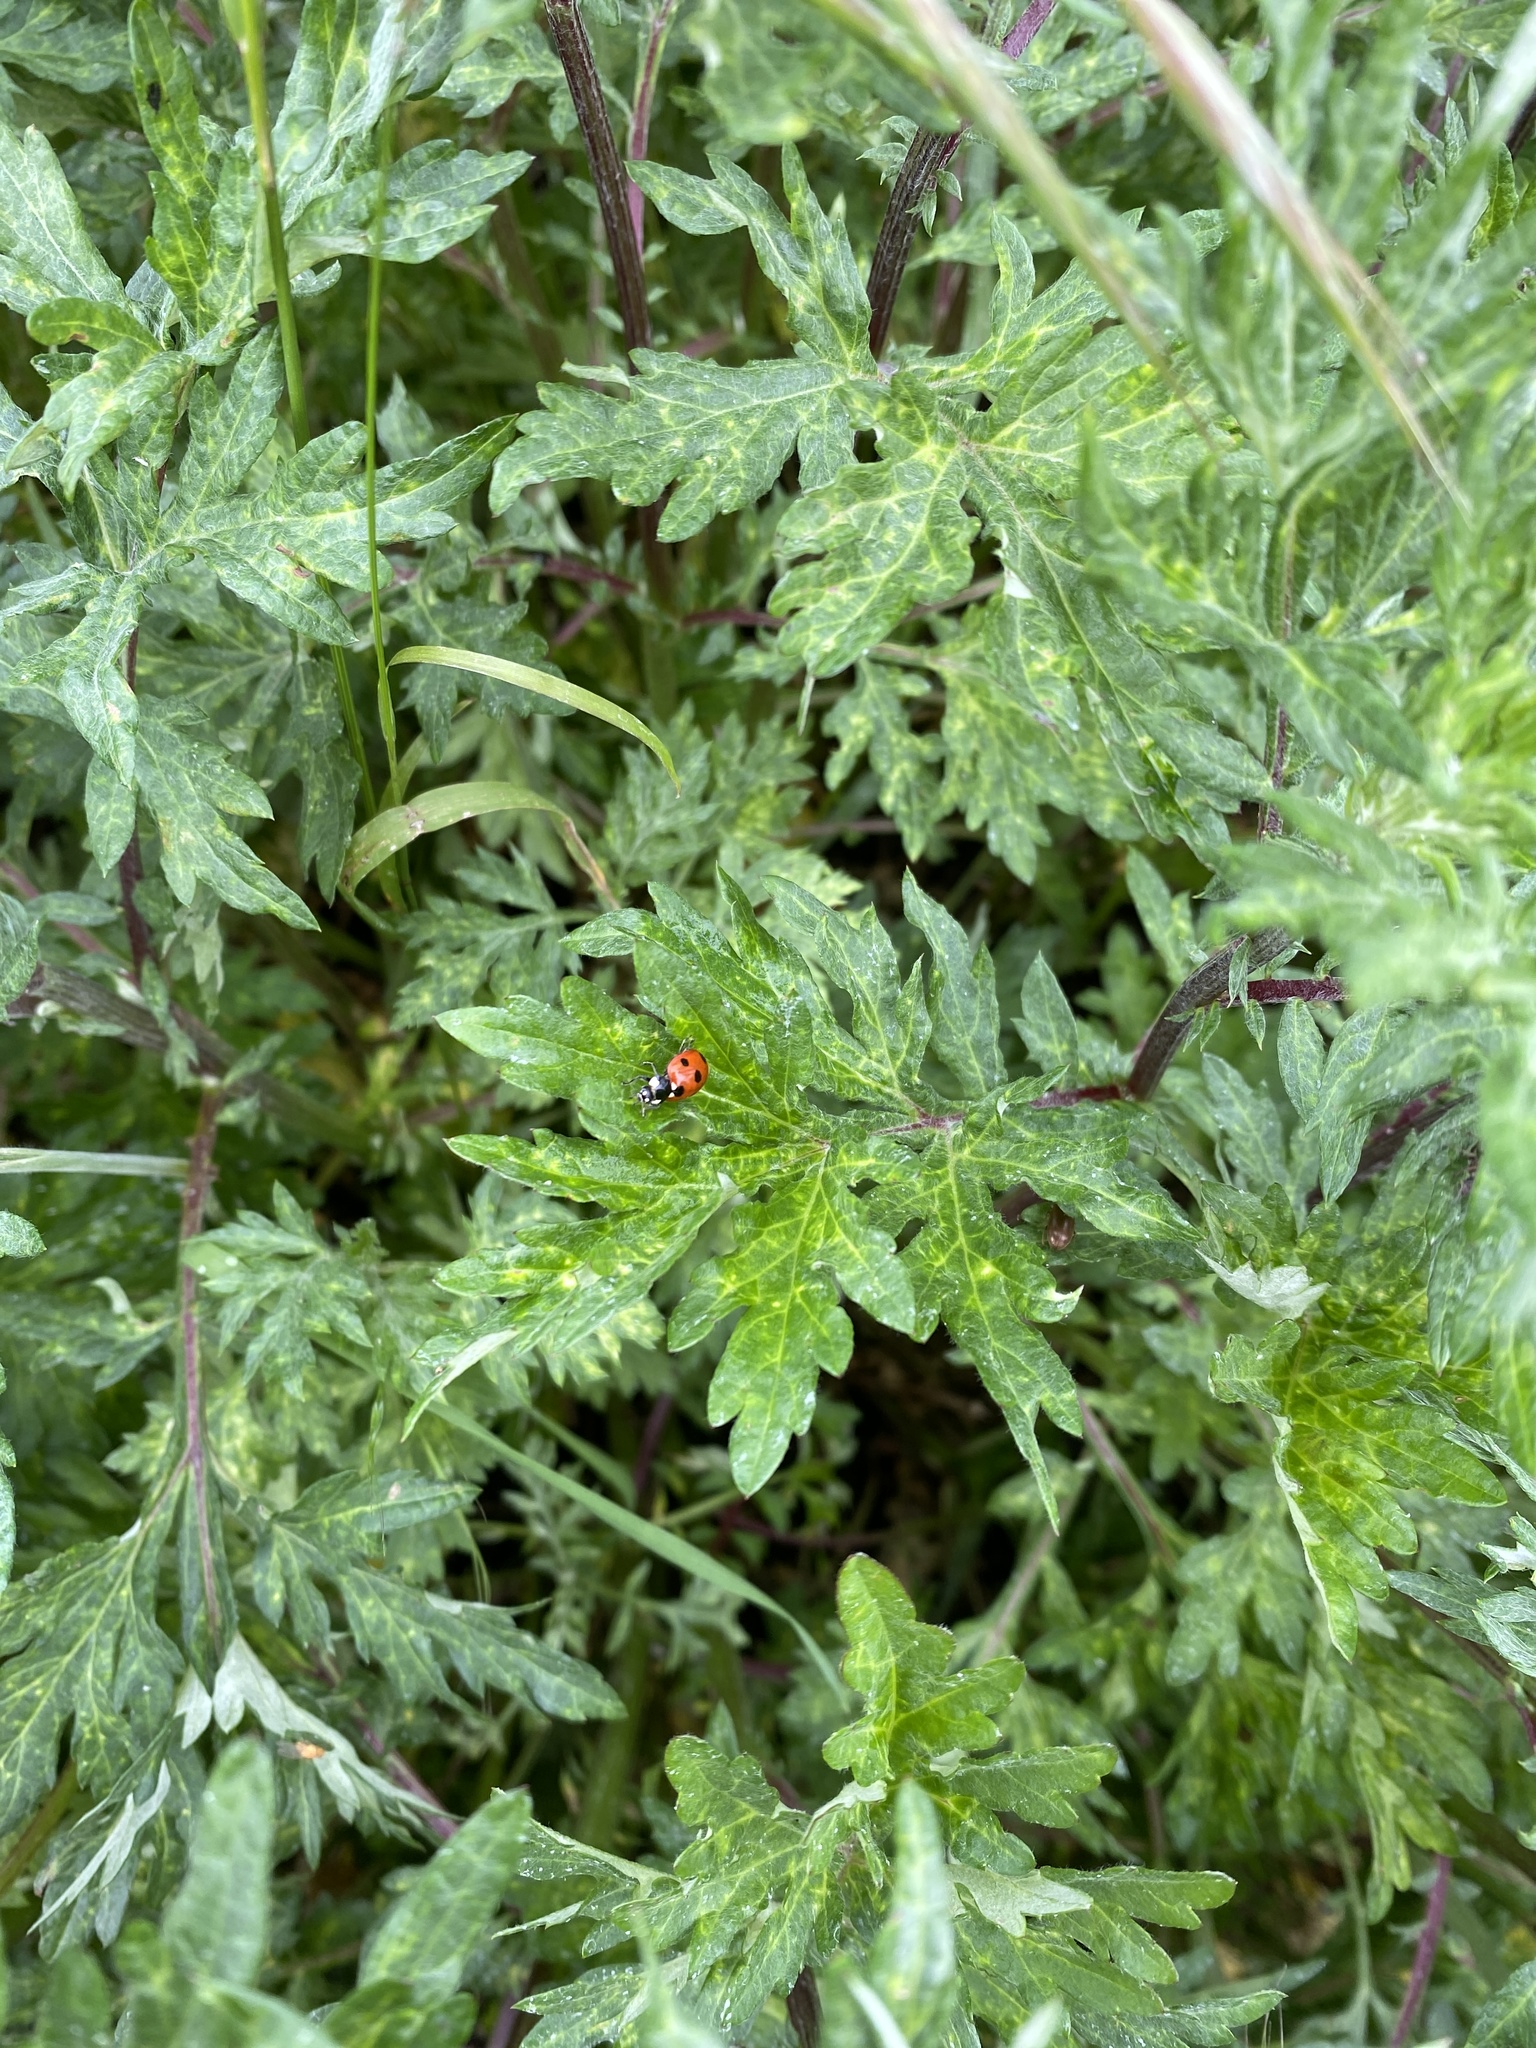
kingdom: Animalia
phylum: Arthropoda
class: Insecta
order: Coleoptera
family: Coccinellidae
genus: Coccinella
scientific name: Coccinella septempunctata
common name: Sevenspotted lady beetle
